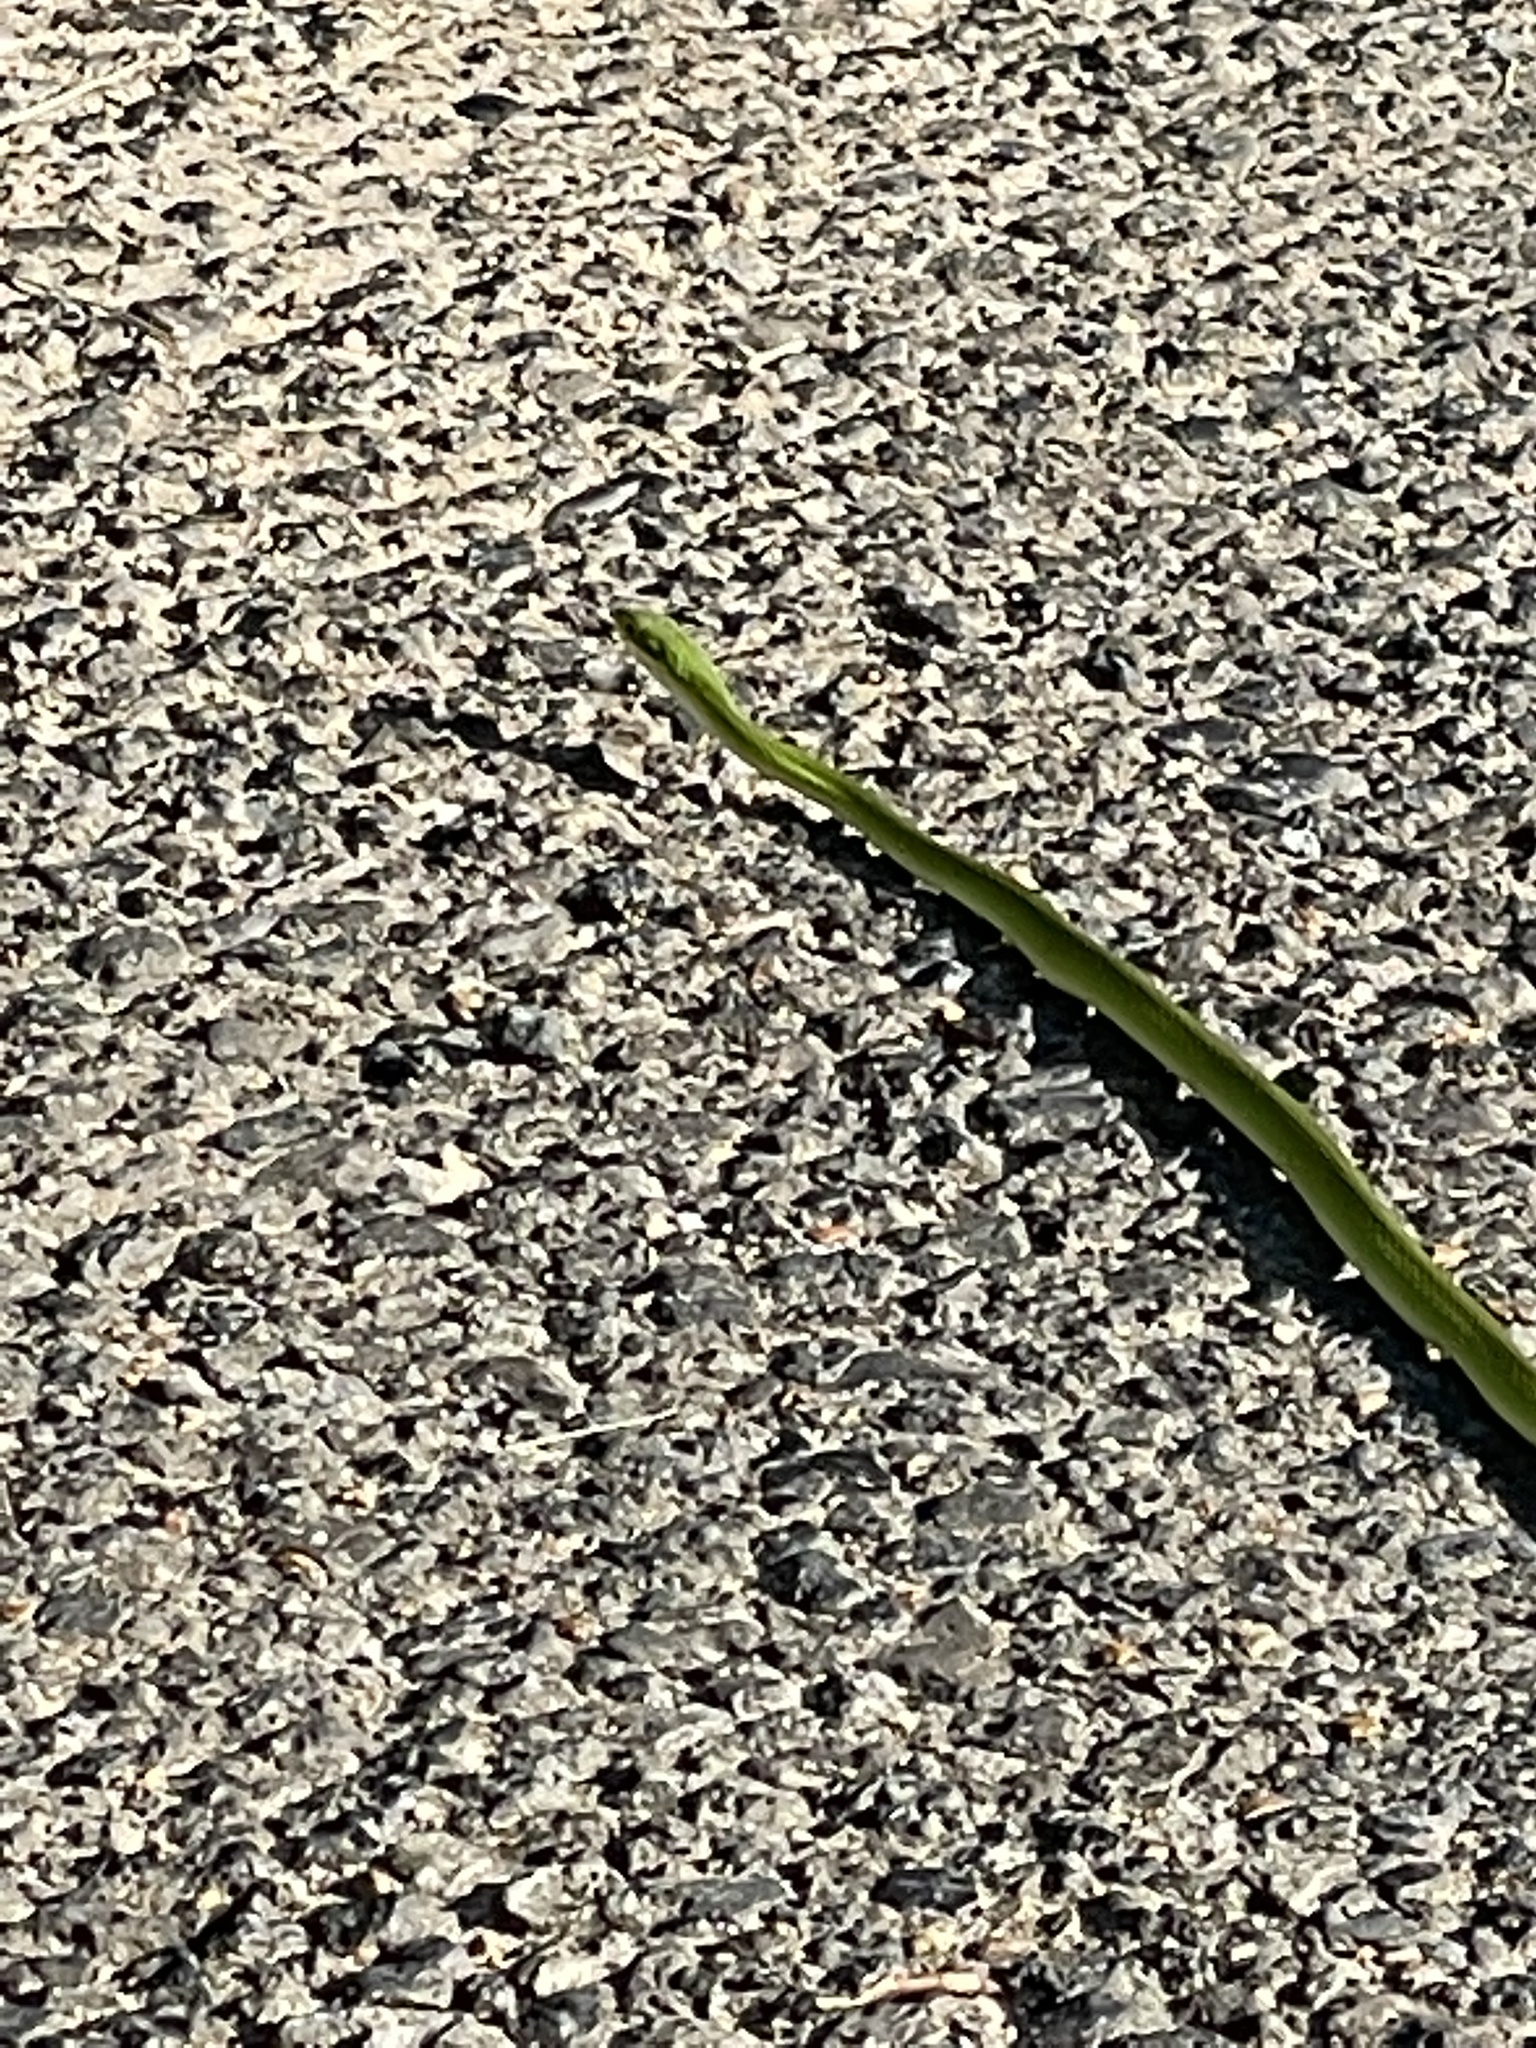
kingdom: Animalia
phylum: Chordata
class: Squamata
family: Colubridae
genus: Opheodrys
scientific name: Opheodrys aestivus
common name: Rough greensnake
